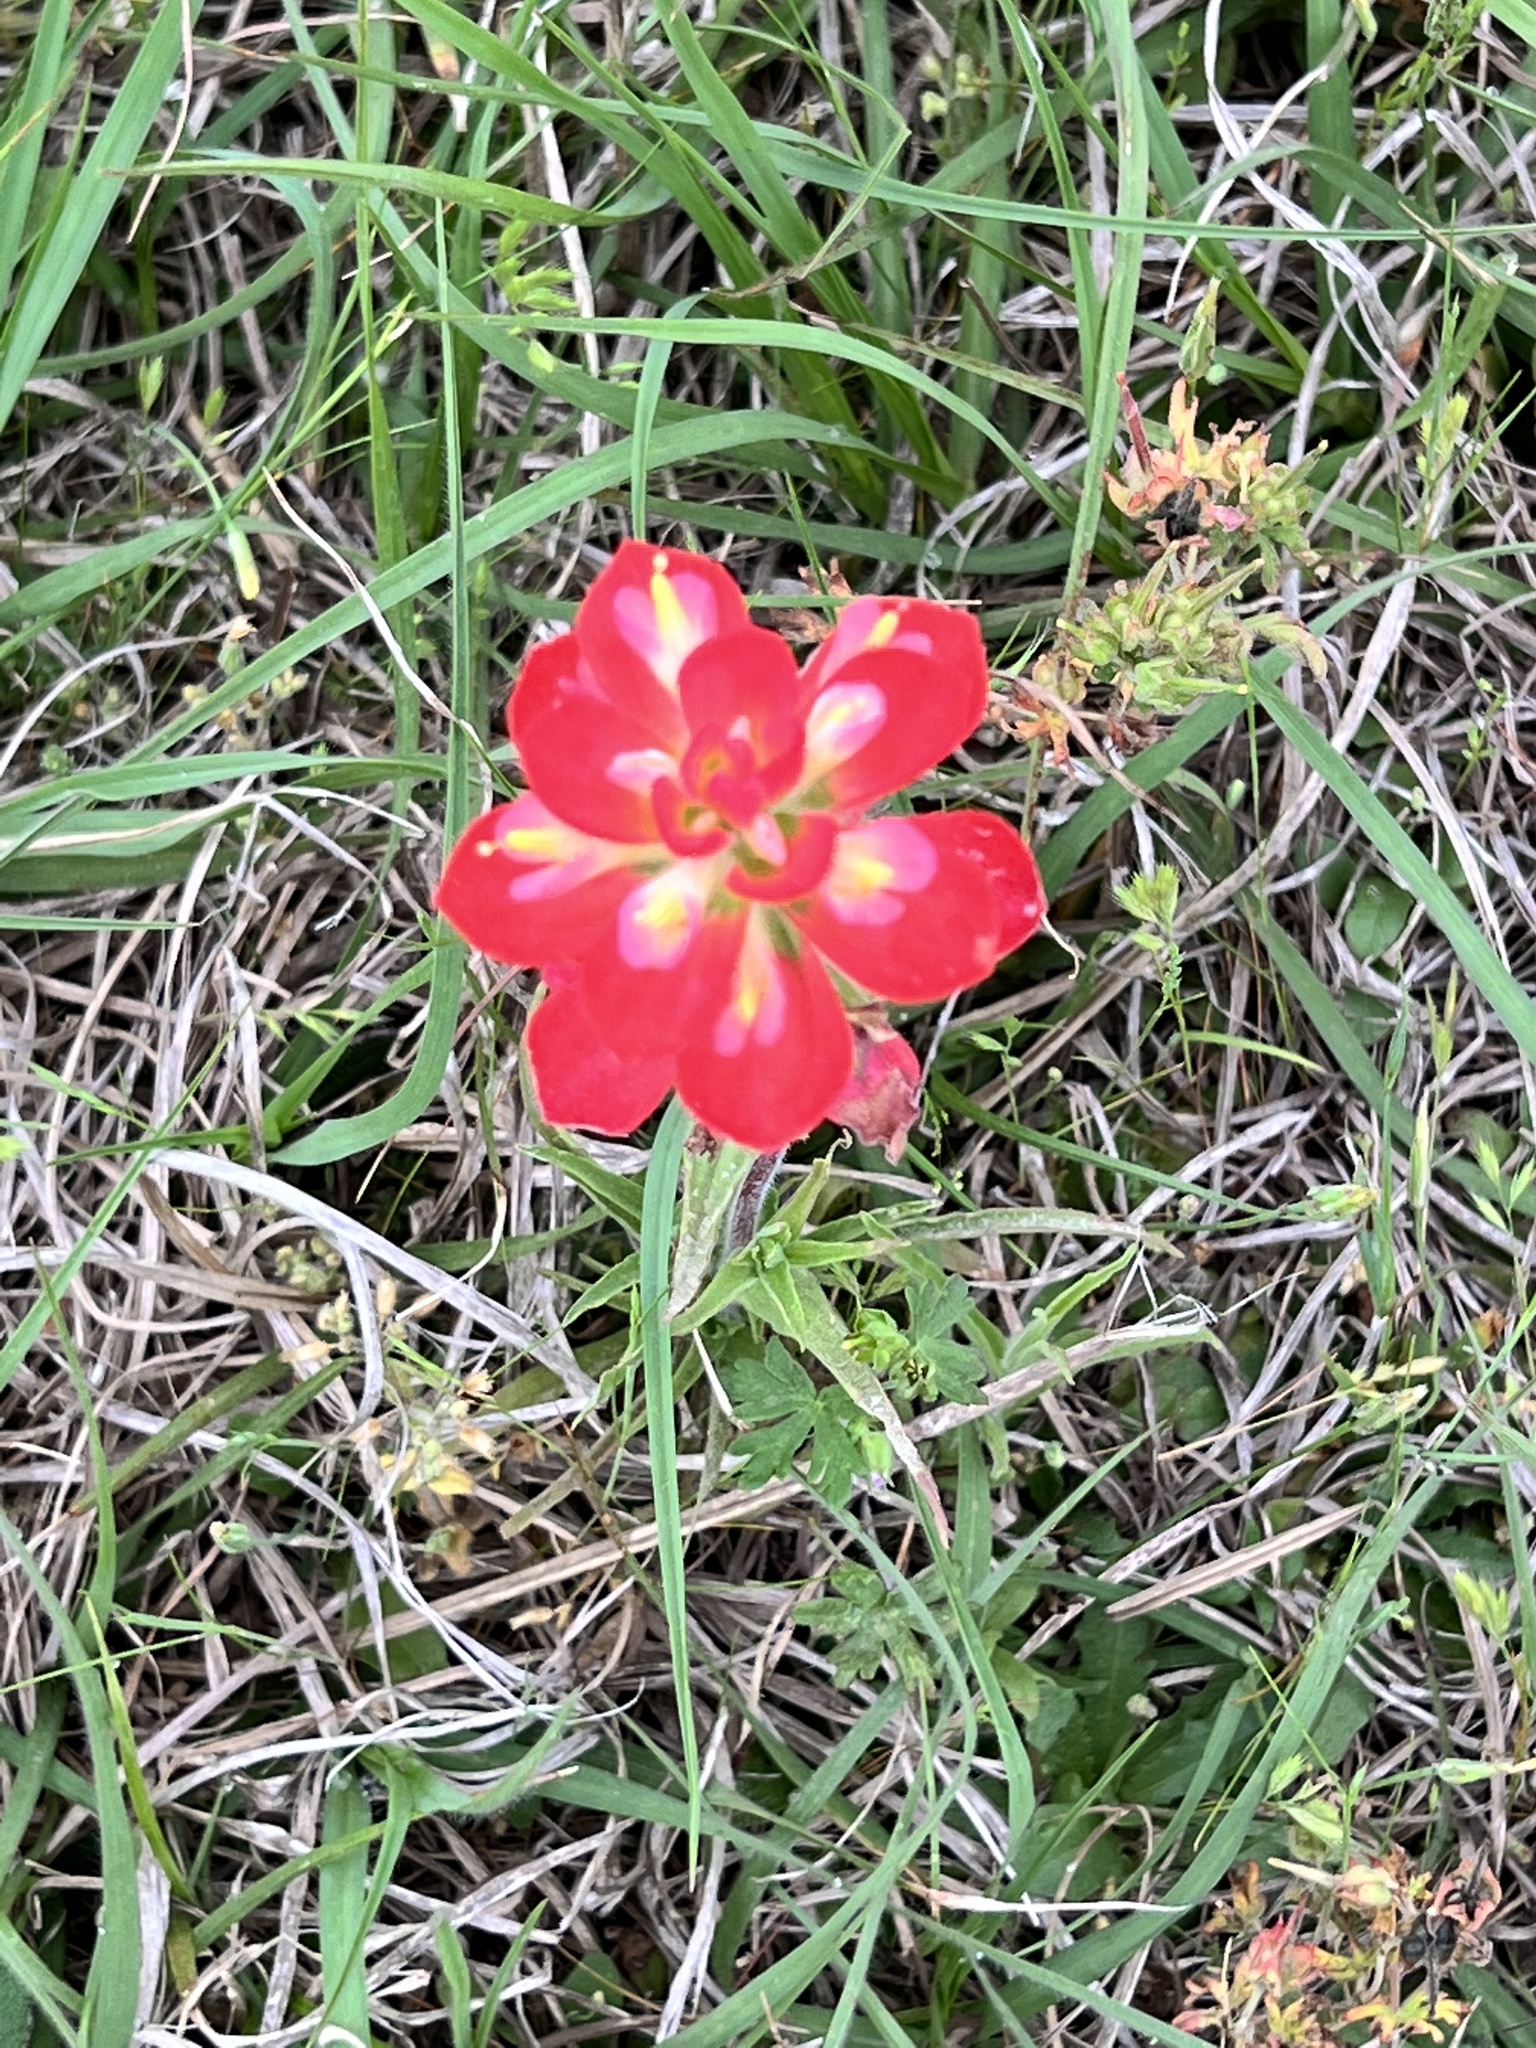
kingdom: Plantae
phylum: Tracheophyta
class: Magnoliopsida
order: Lamiales
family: Orobanchaceae
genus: Castilleja
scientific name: Castilleja indivisa
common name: Texas paintbrush
